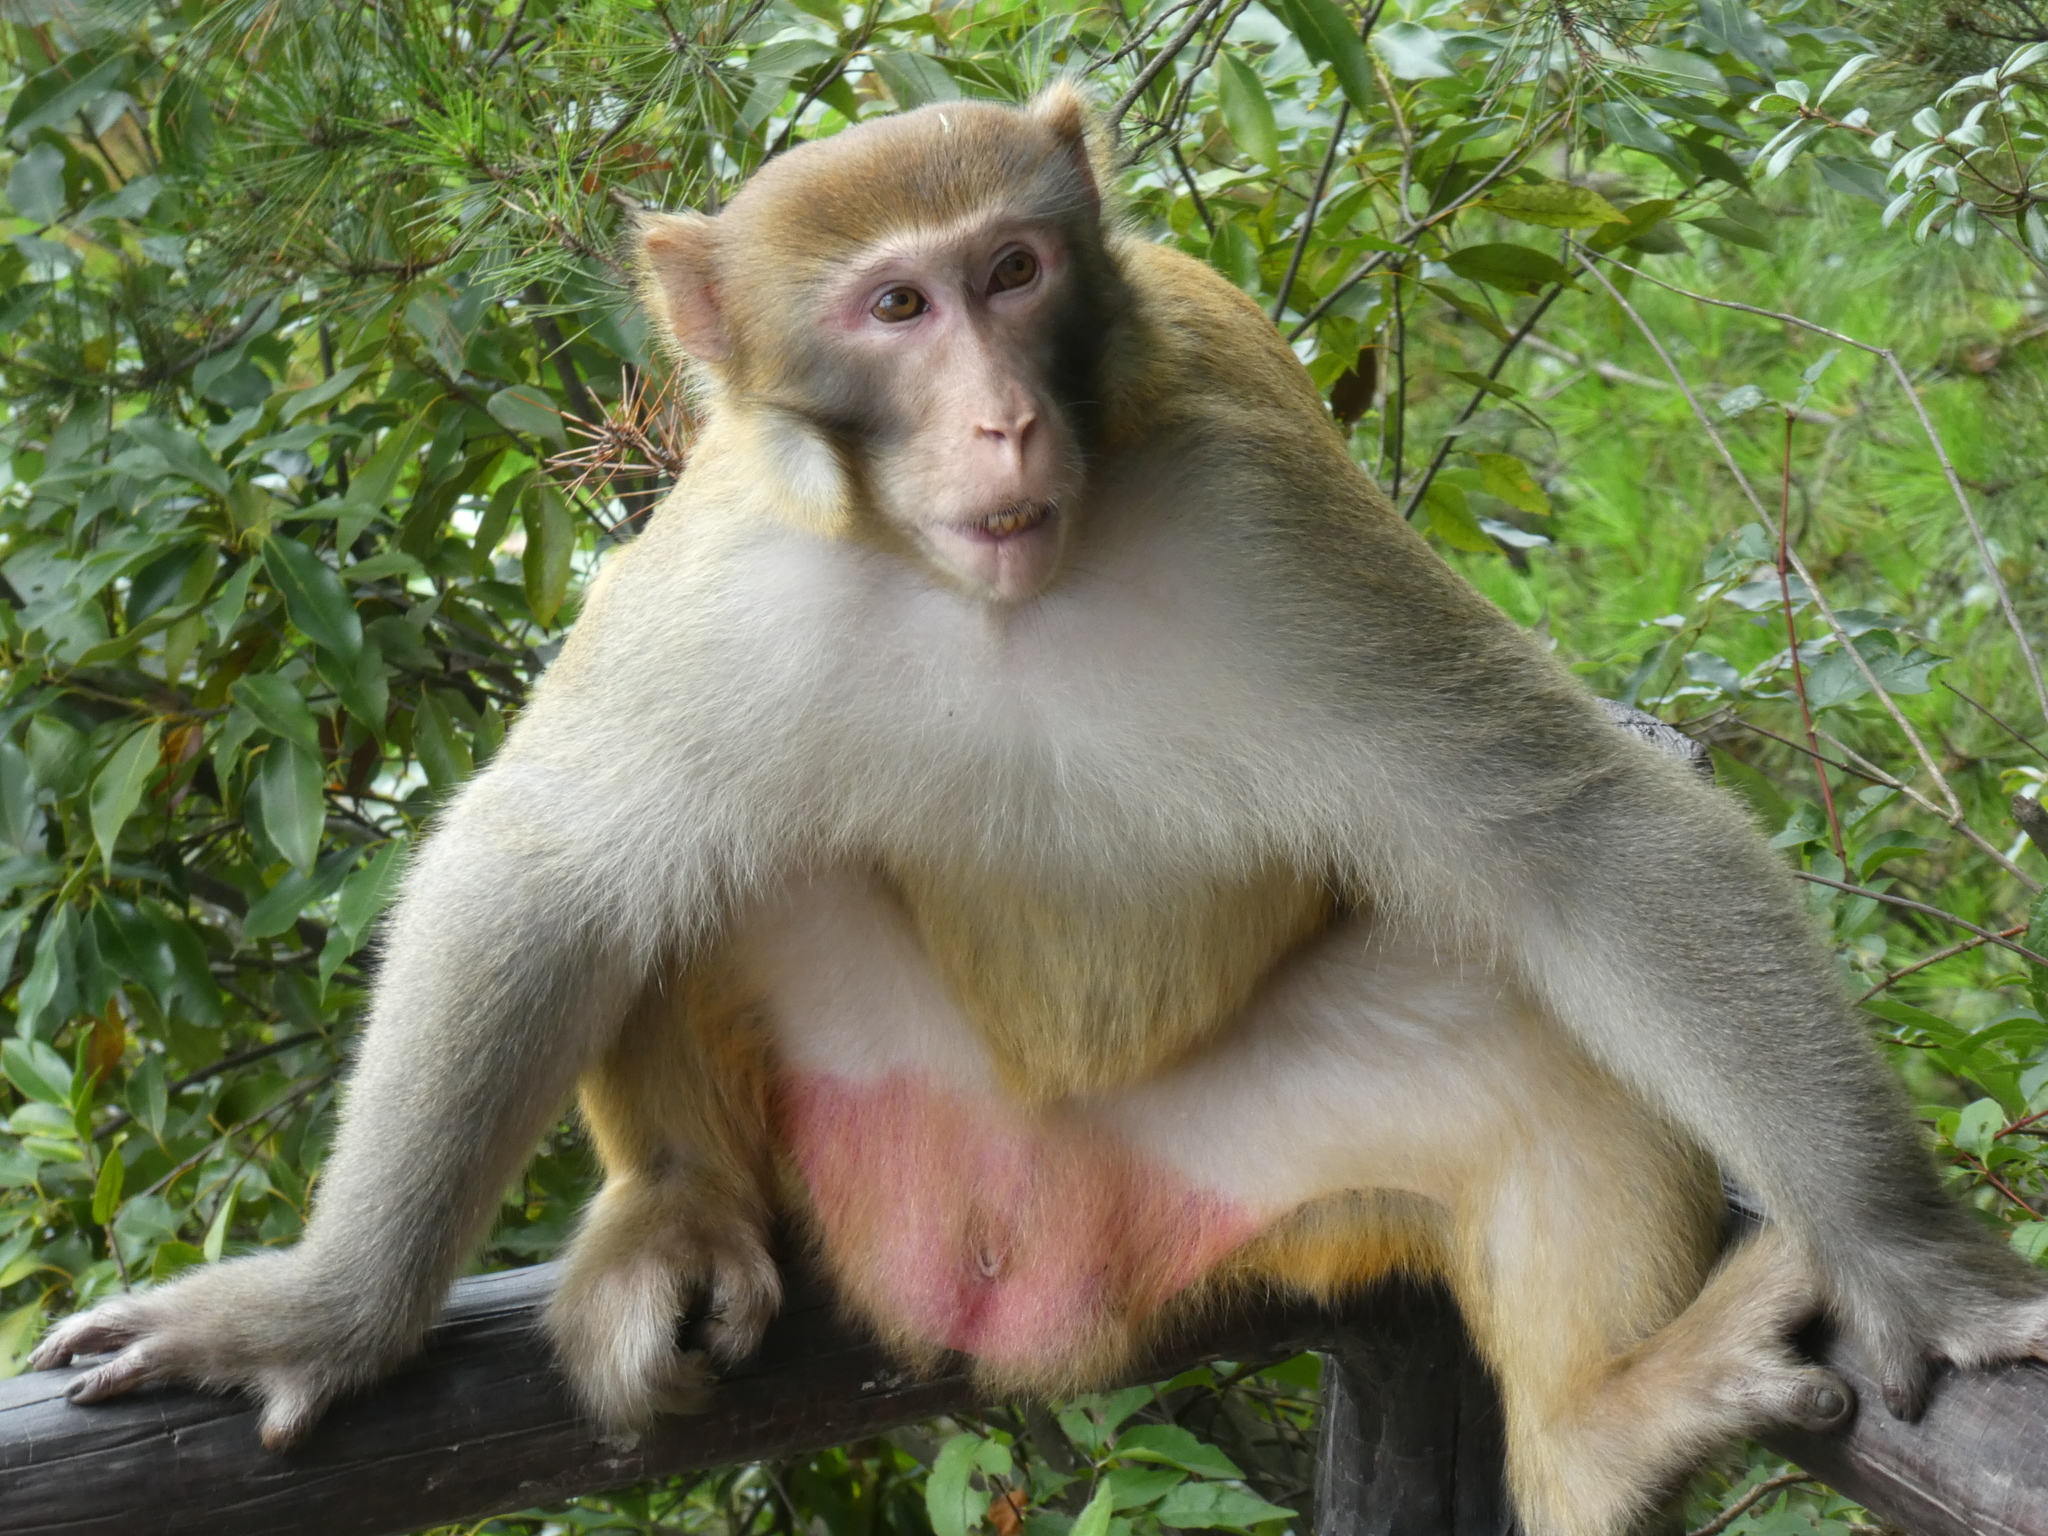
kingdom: Animalia
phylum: Chordata
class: Mammalia
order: Primates
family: Cercopithecidae
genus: Macaca
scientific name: Macaca mulatta
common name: Rhesus monkey
